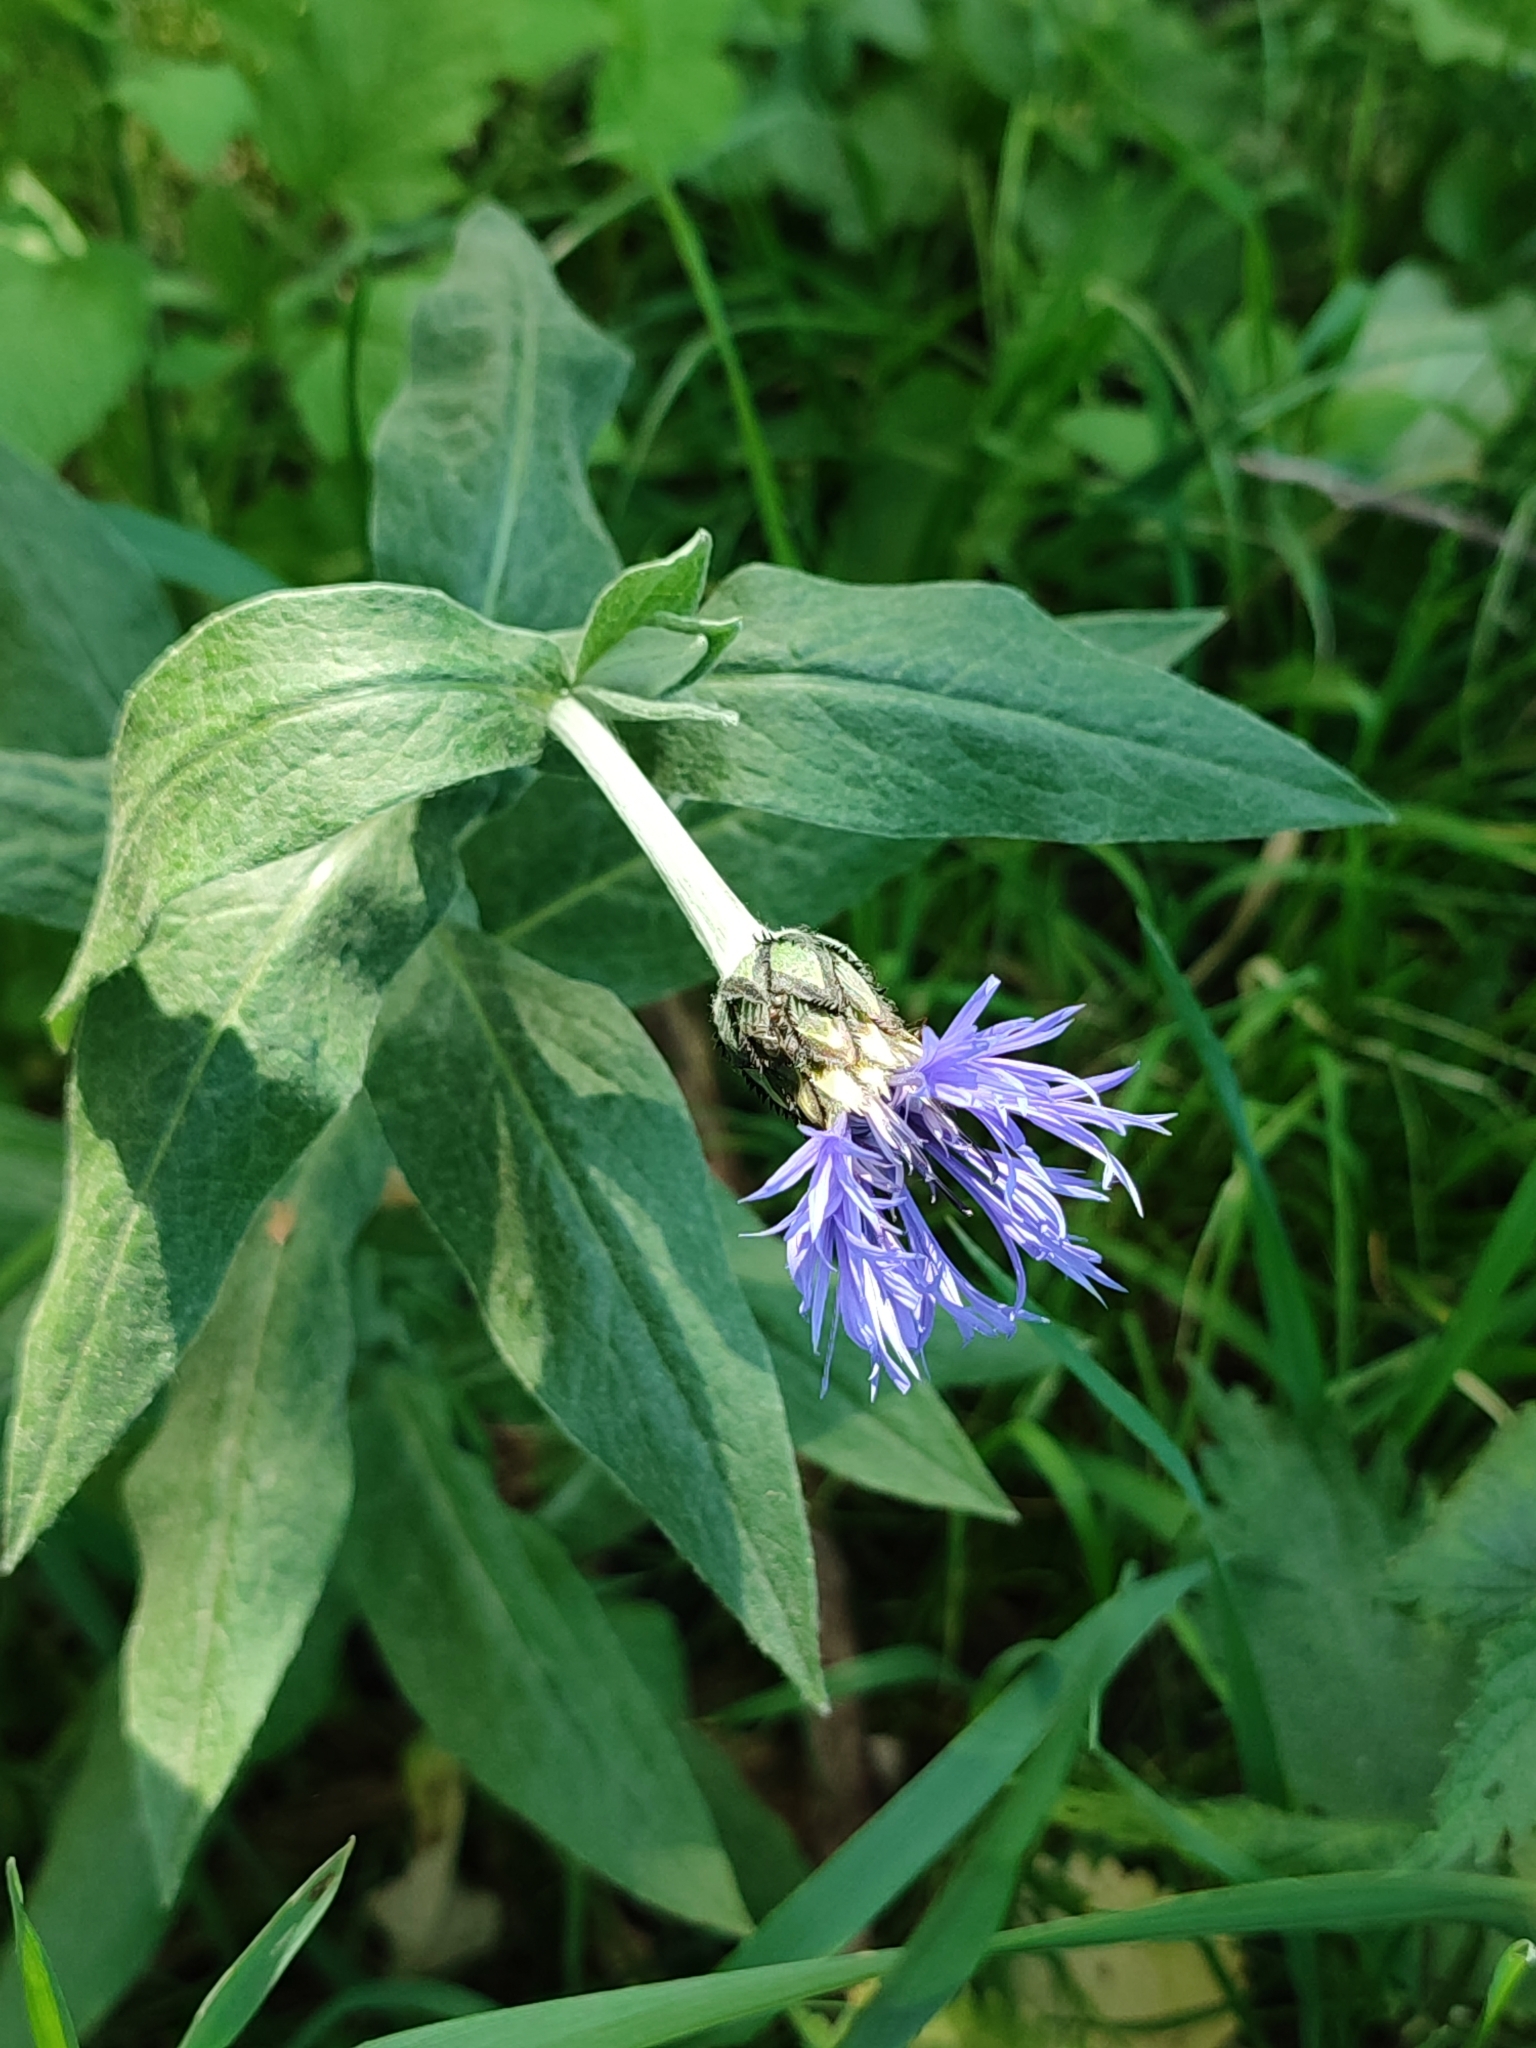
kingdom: Plantae
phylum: Tracheophyta
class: Magnoliopsida
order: Asterales
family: Asteraceae
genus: Centaurea
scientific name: Centaurea montana
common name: Perennial cornflower
